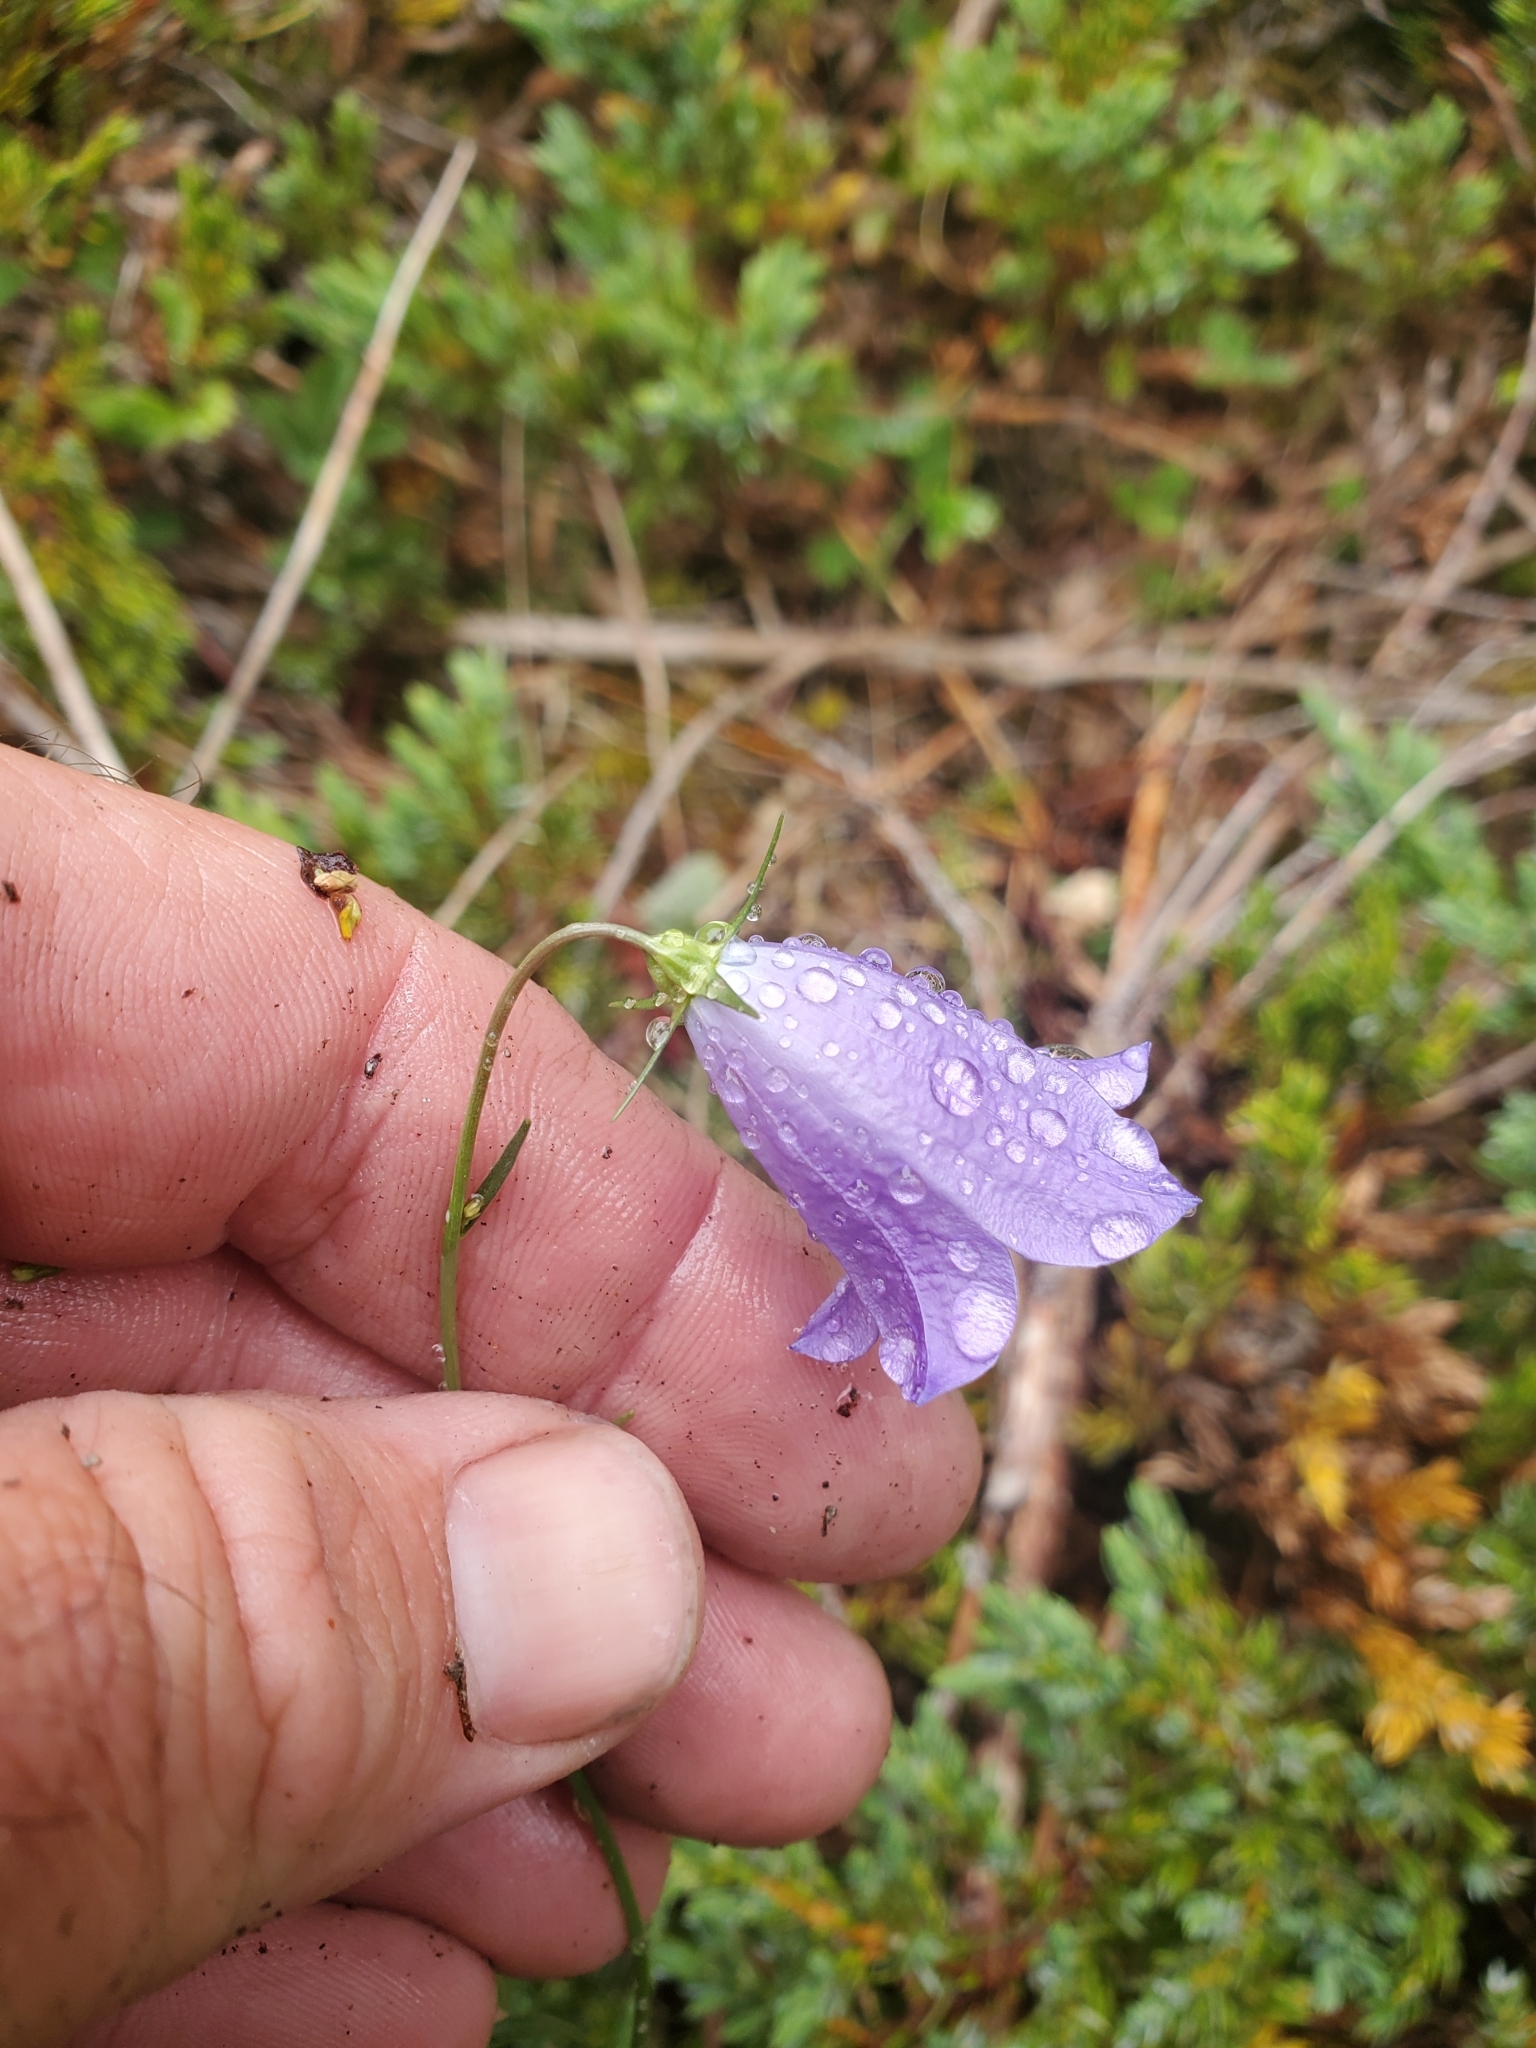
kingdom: Plantae
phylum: Tracheophyta
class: Magnoliopsida
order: Asterales
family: Campanulaceae
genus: Campanula
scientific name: Campanula alaskana
